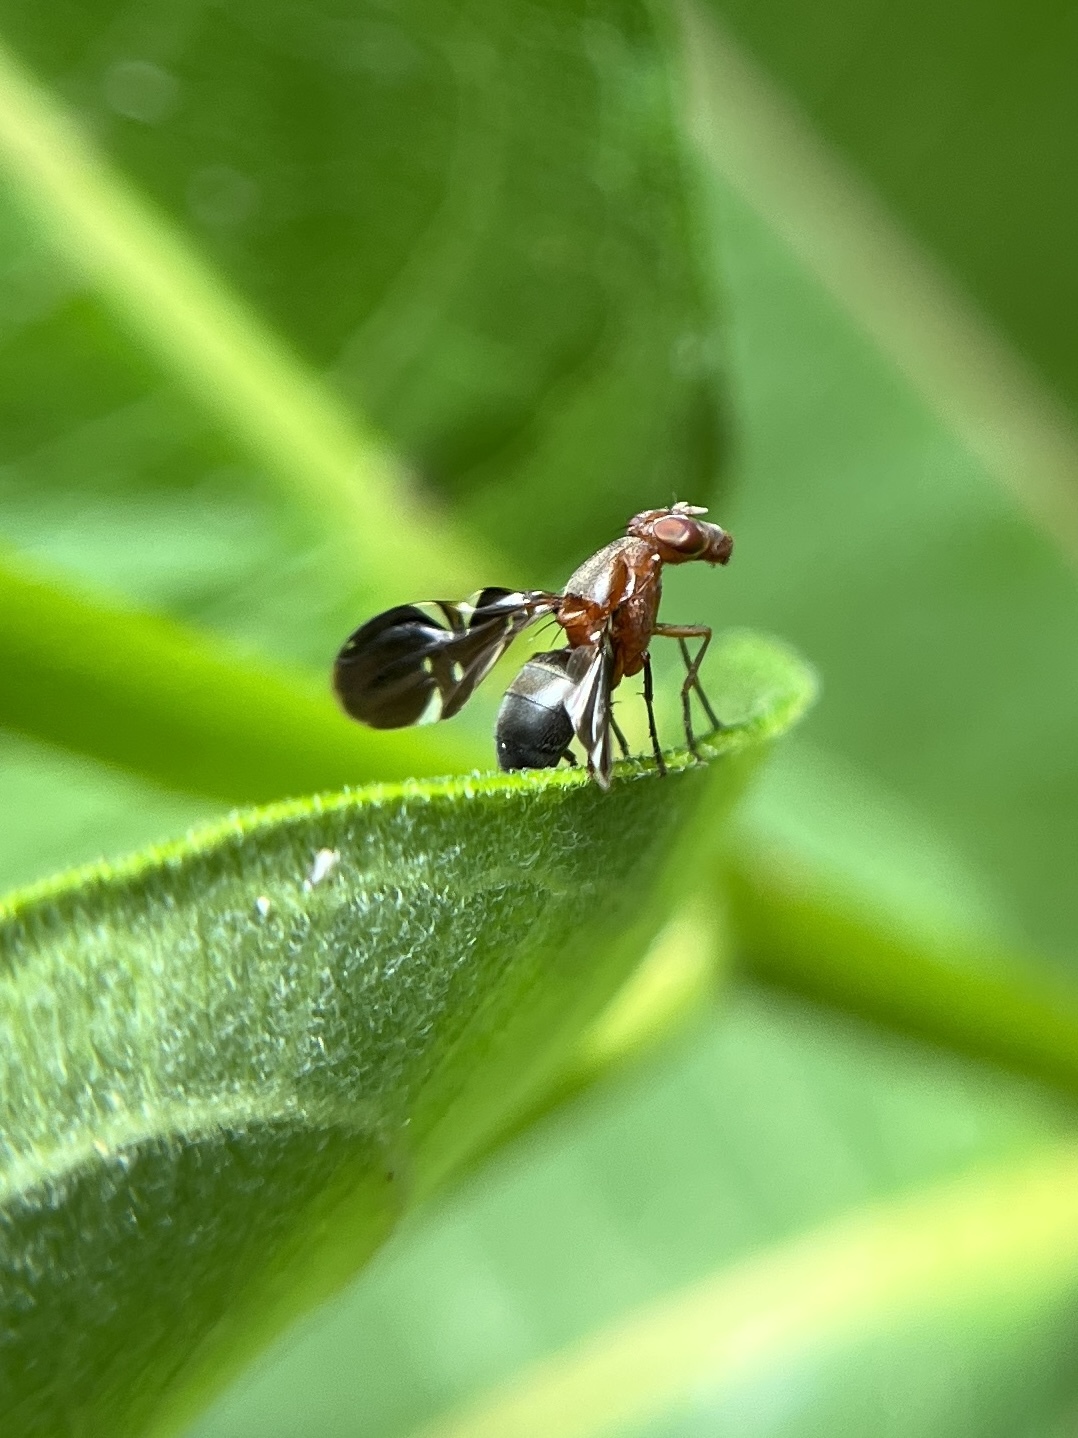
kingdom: Animalia
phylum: Arthropoda
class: Insecta
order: Diptera
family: Ulidiidae
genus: Delphinia
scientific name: Delphinia picta
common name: Common picture-winged fly
